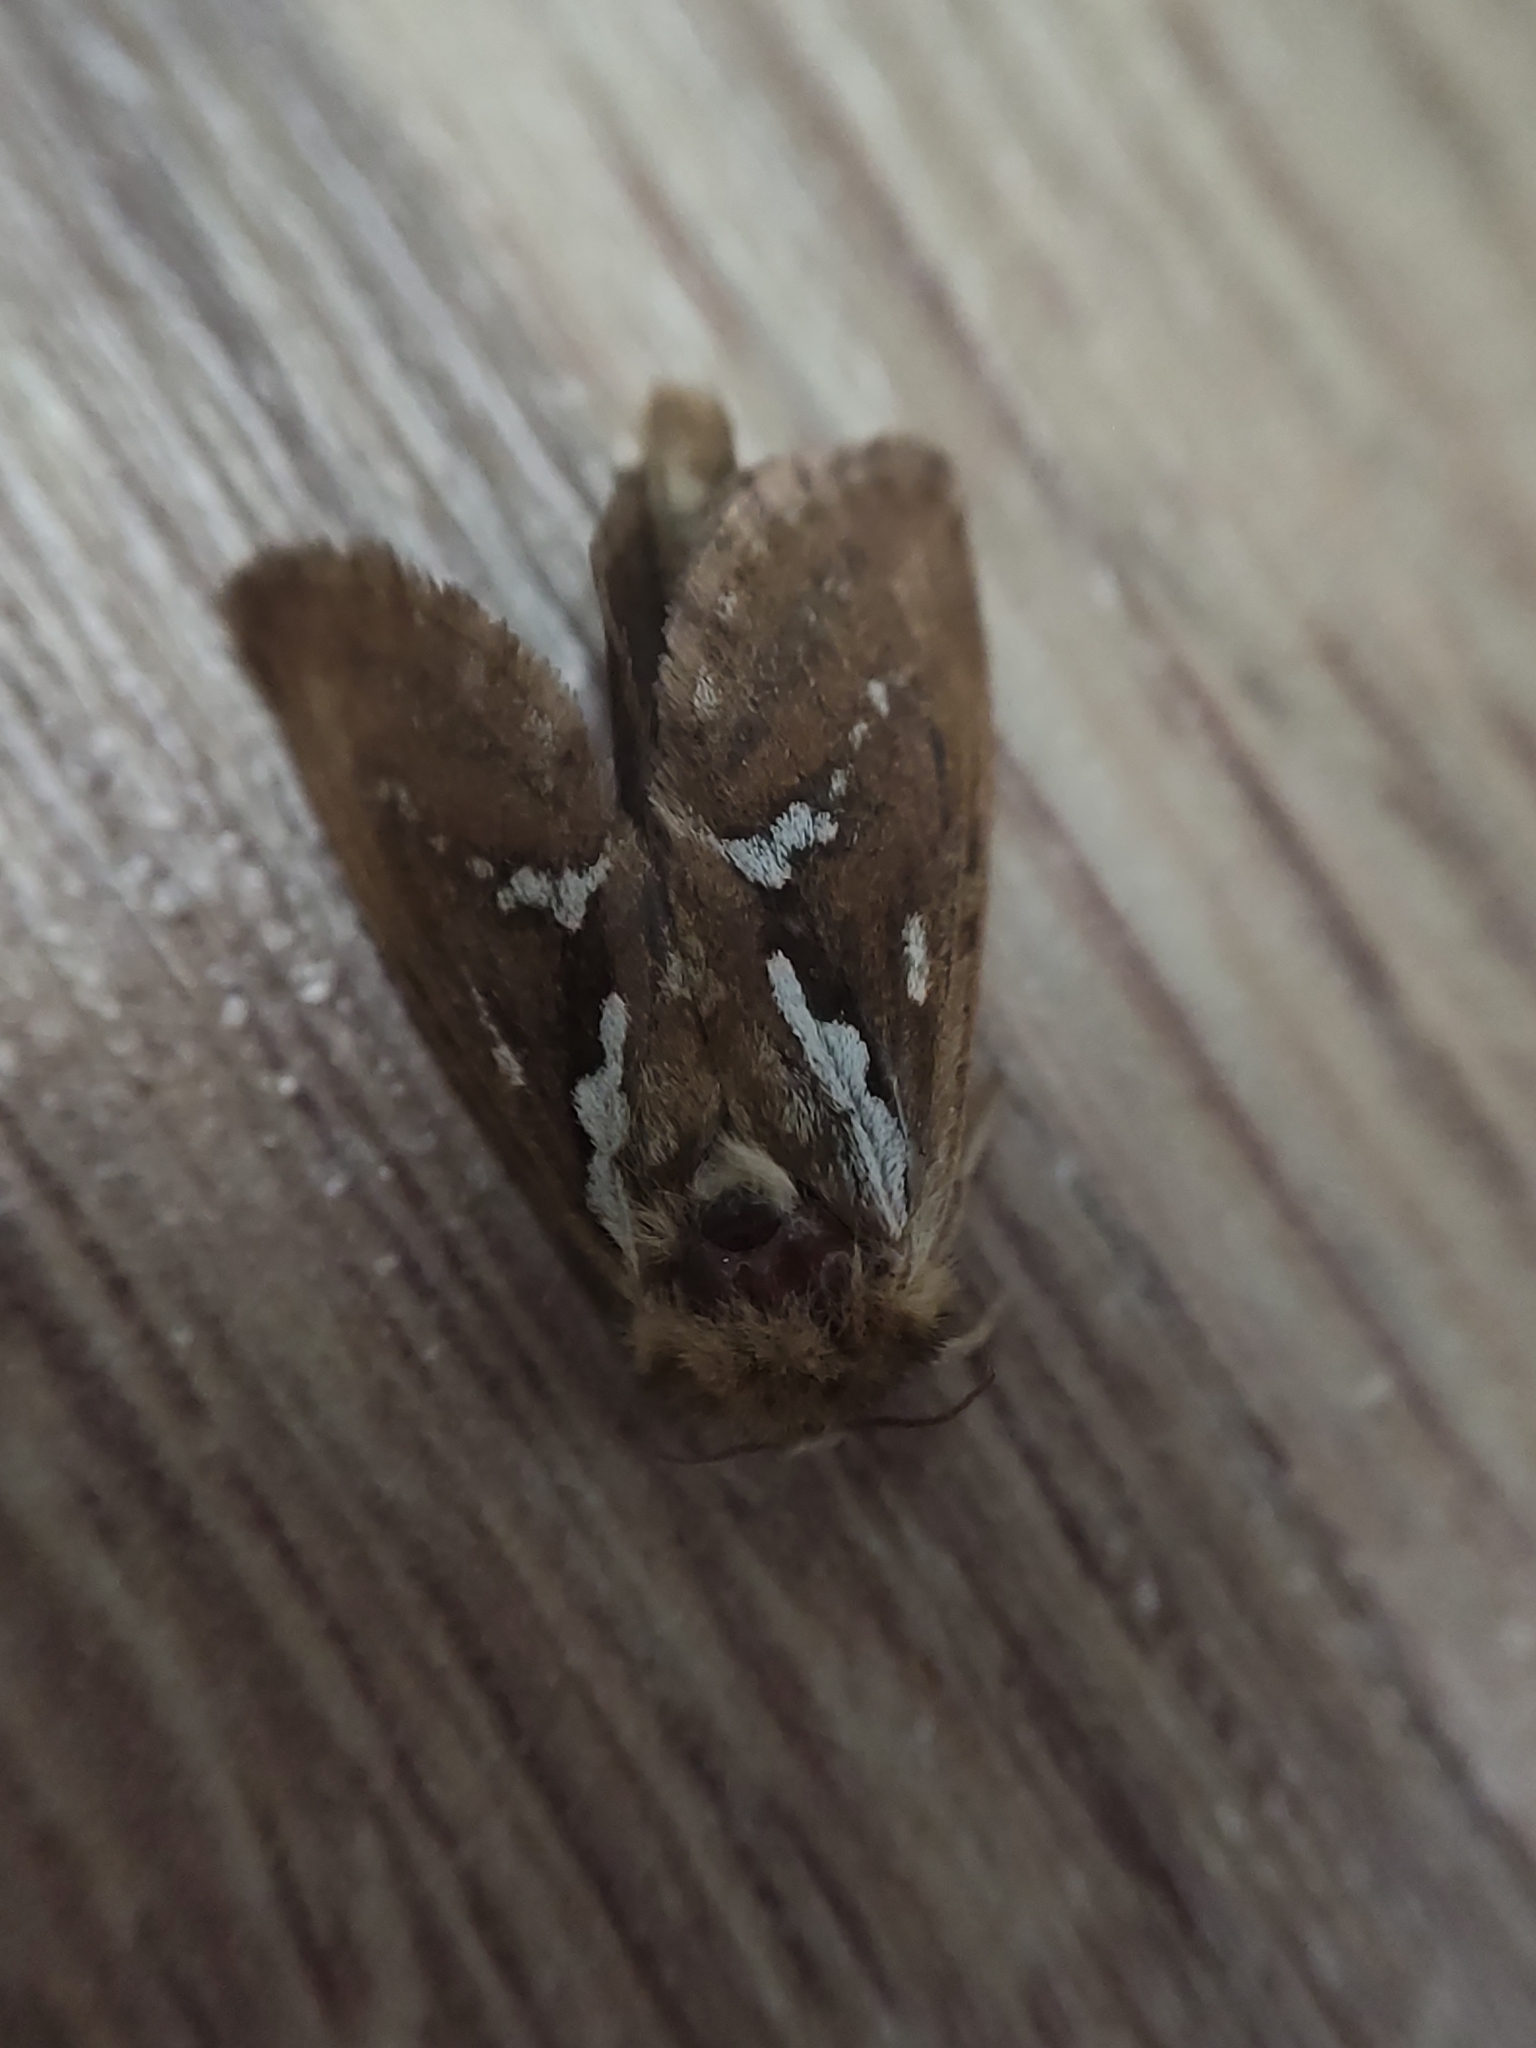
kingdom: Animalia
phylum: Arthropoda
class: Insecta
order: Lepidoptera
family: Hepialidae
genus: Korscheltellus
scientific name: Korscheltellus lupulina
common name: Common swift
